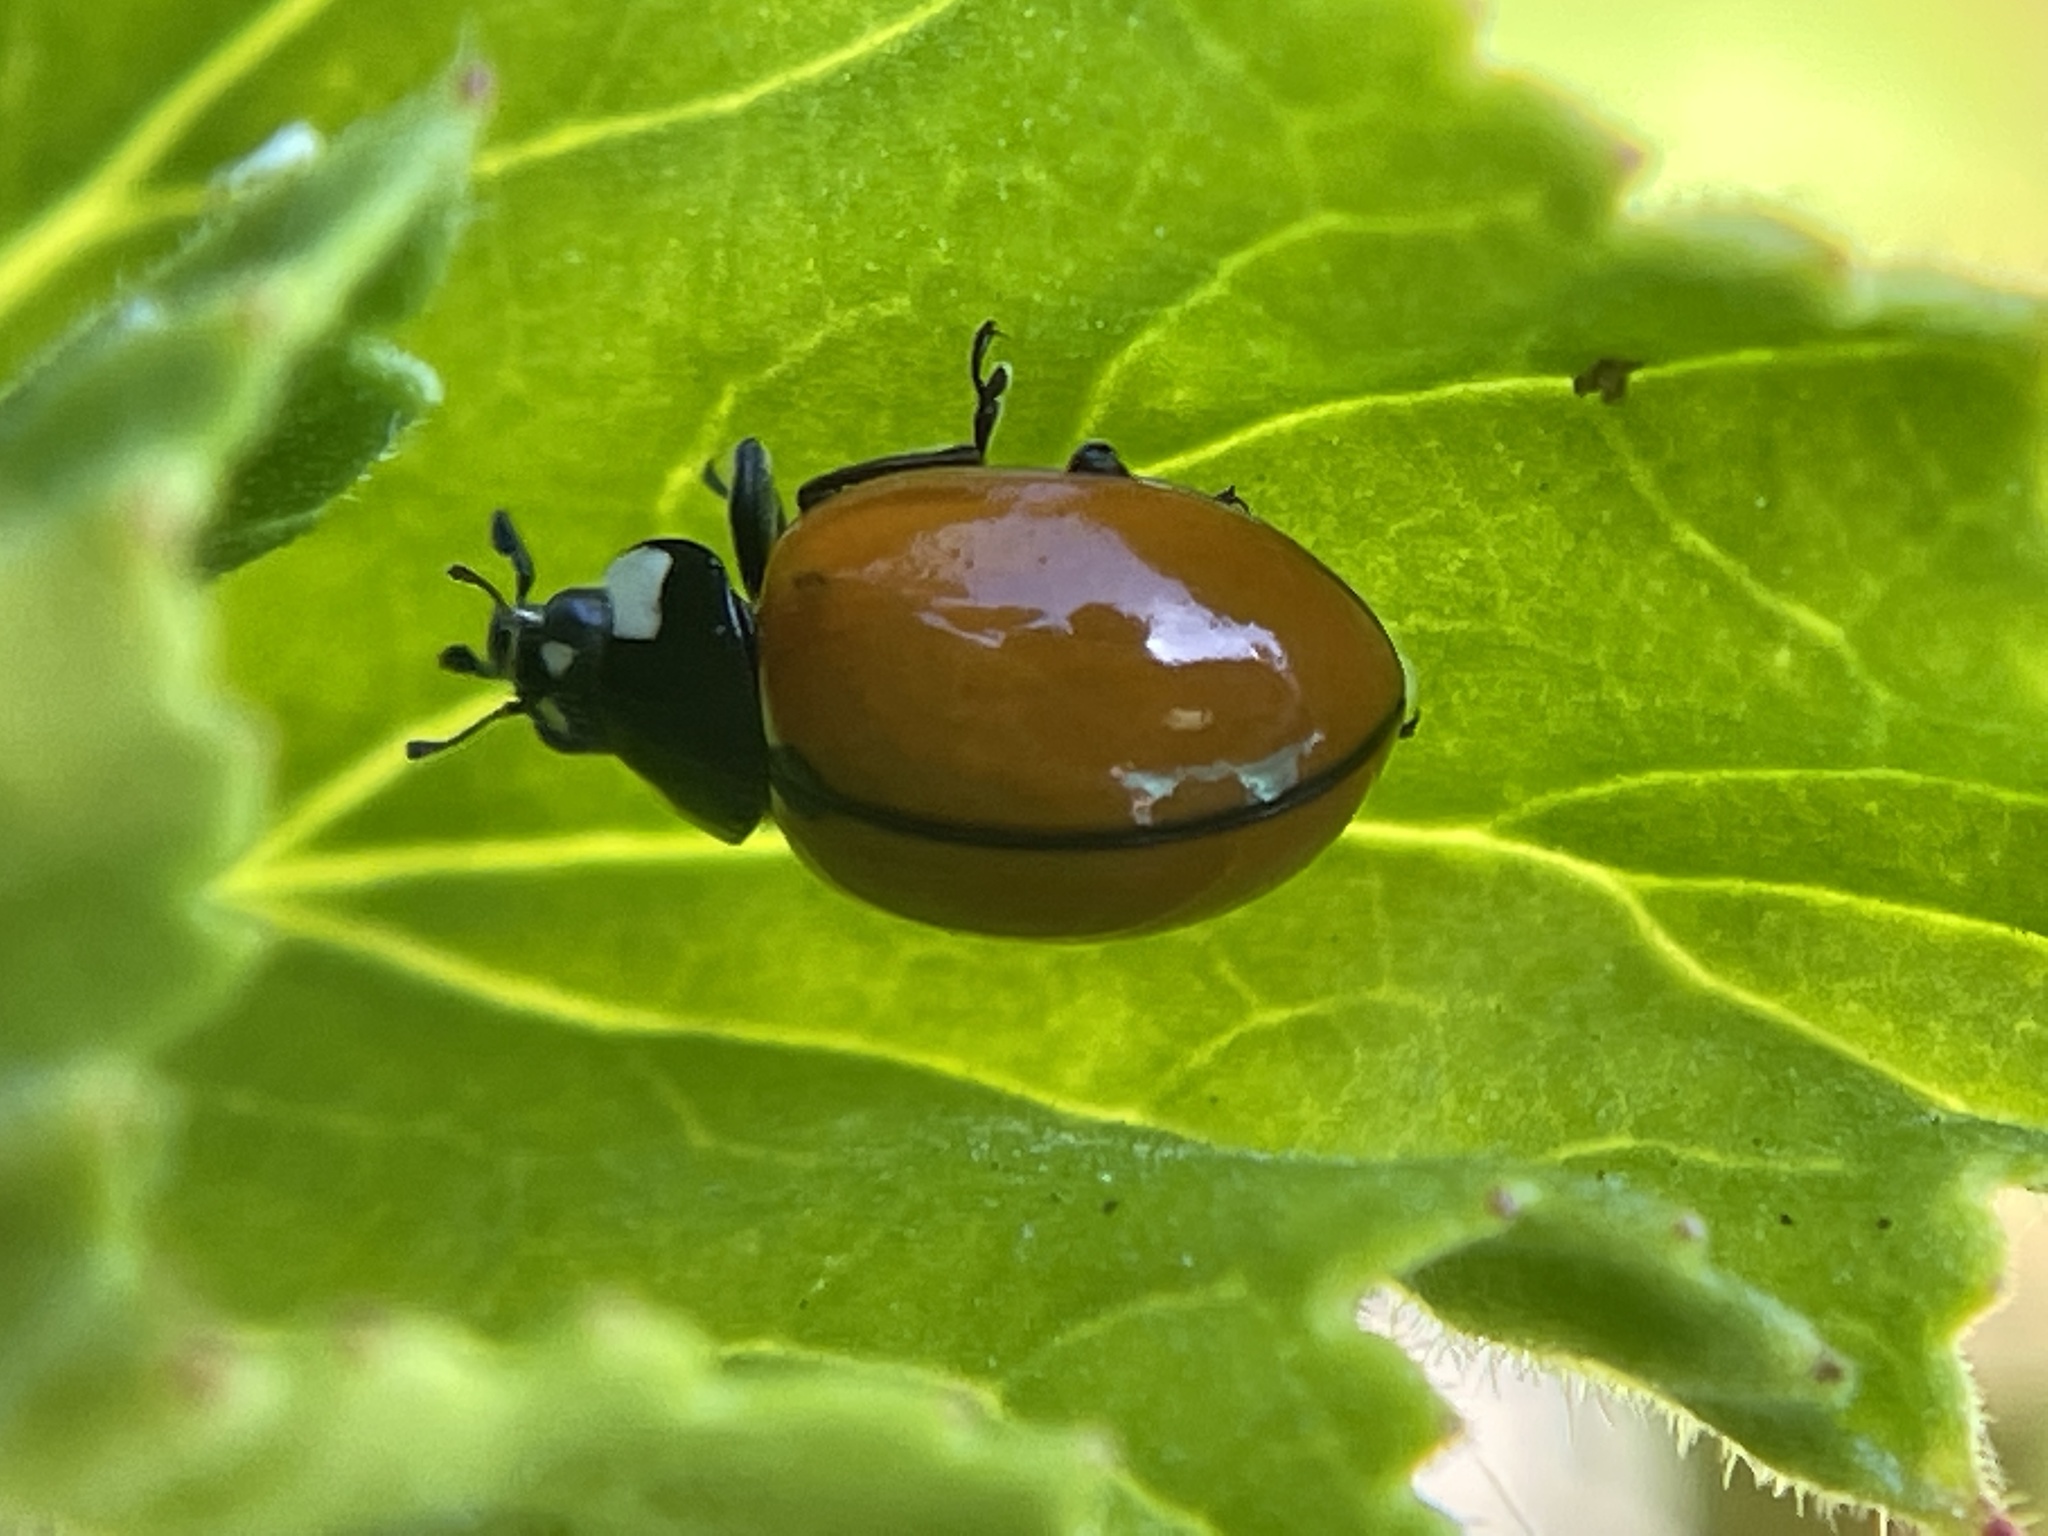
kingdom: Animalia
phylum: Arthropoda
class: Insecta
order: Coleoptera
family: Coccinellidae
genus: Coccinella
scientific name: Coccinella californica
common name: Lady beetle
